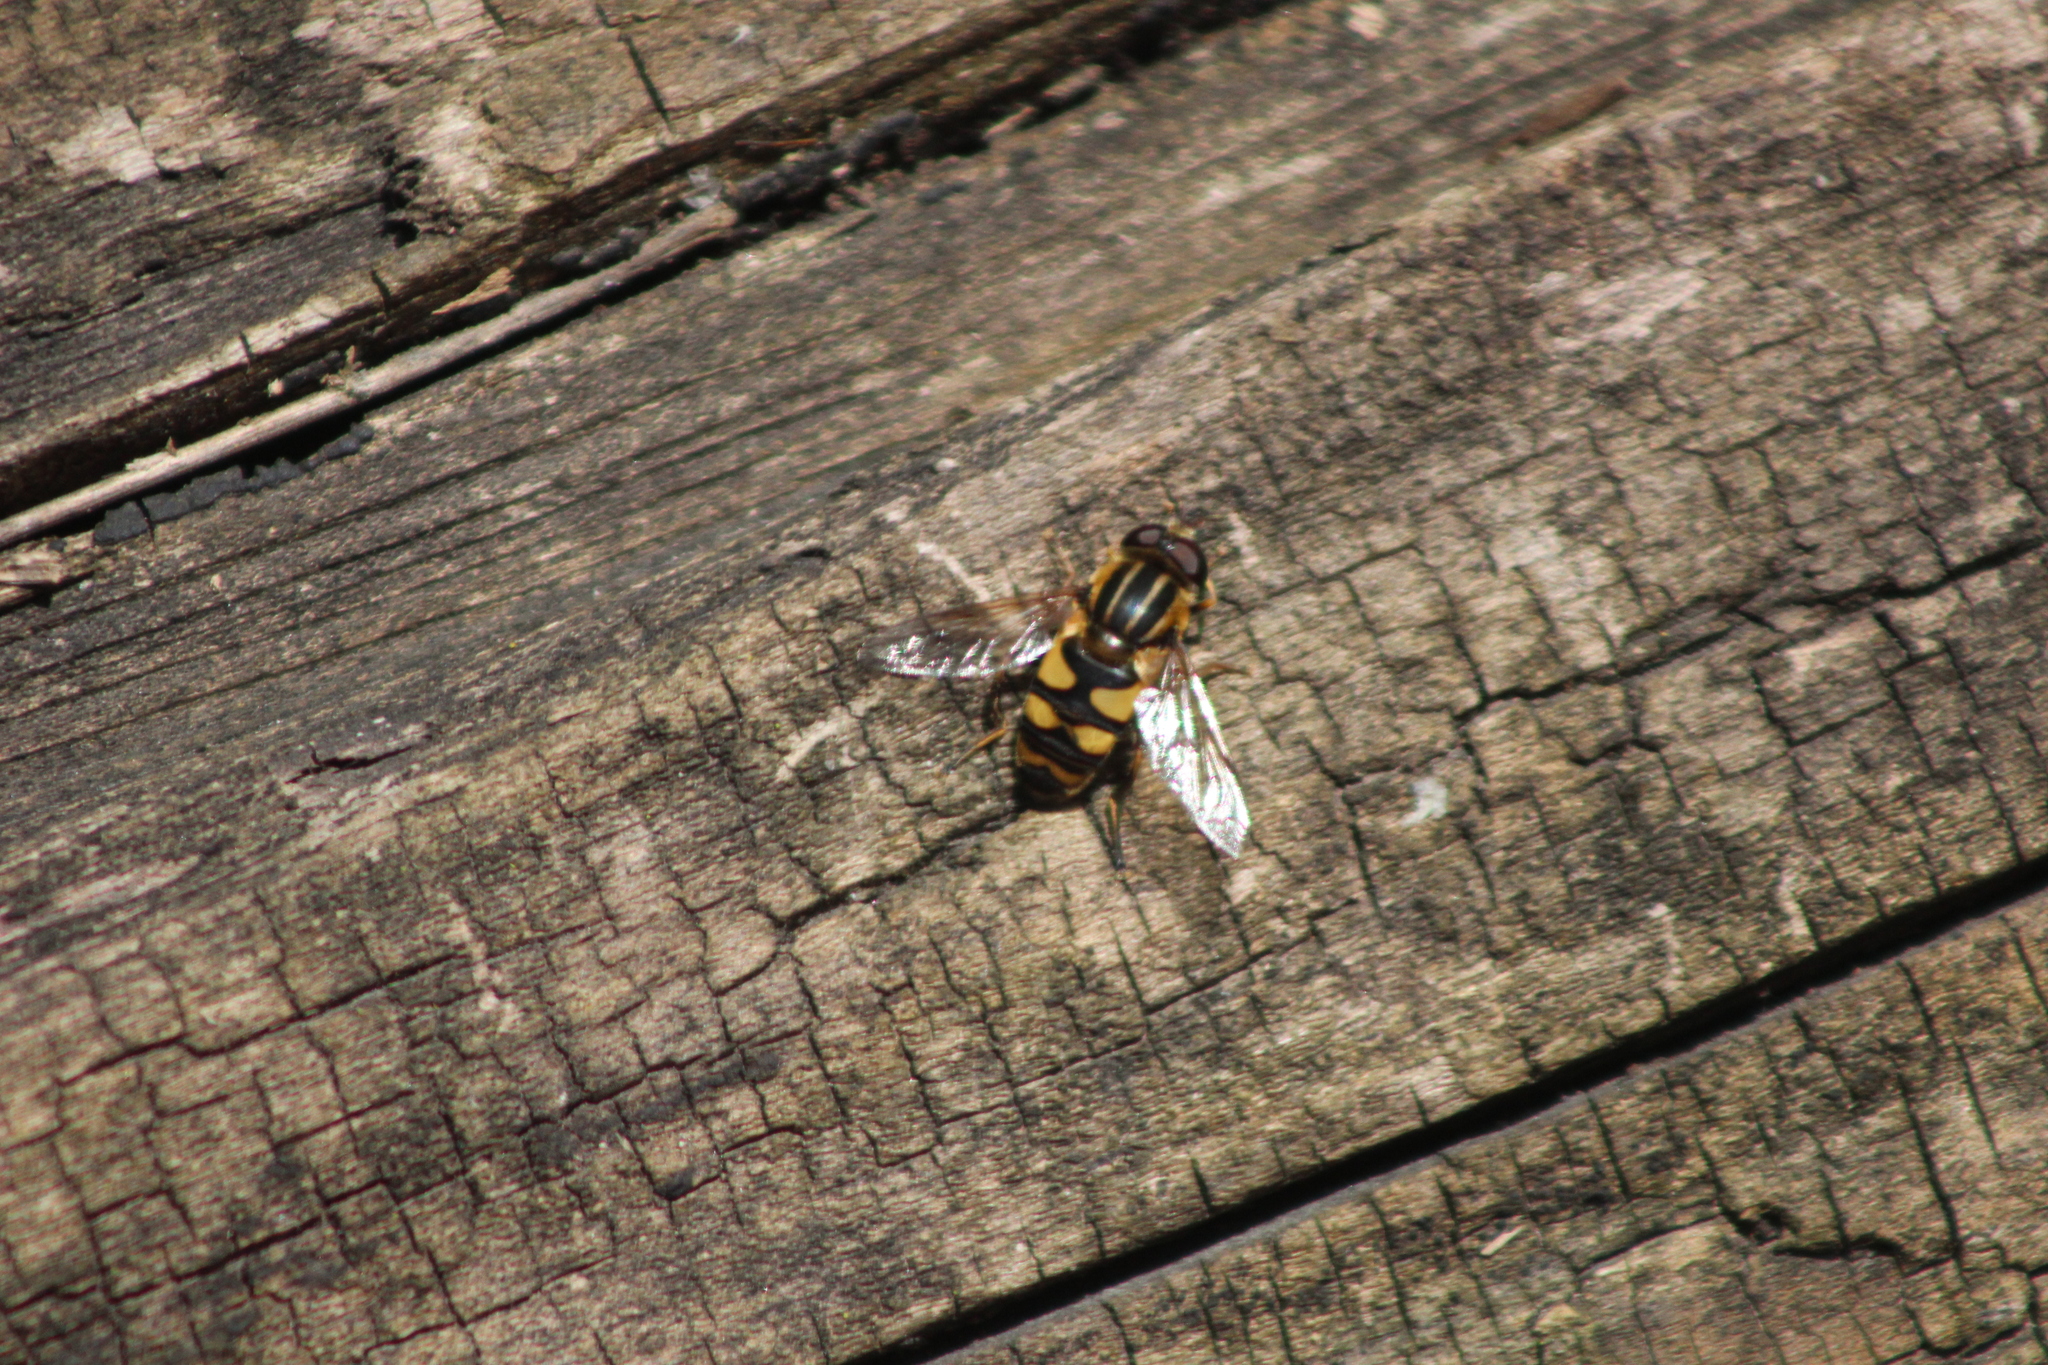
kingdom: Animalia
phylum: Arthropoda
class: Insecta
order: Diptera
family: Syrphidae
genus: Helophilus
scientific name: Helophilus fasciatus
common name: Narrow-headed marsh fly
